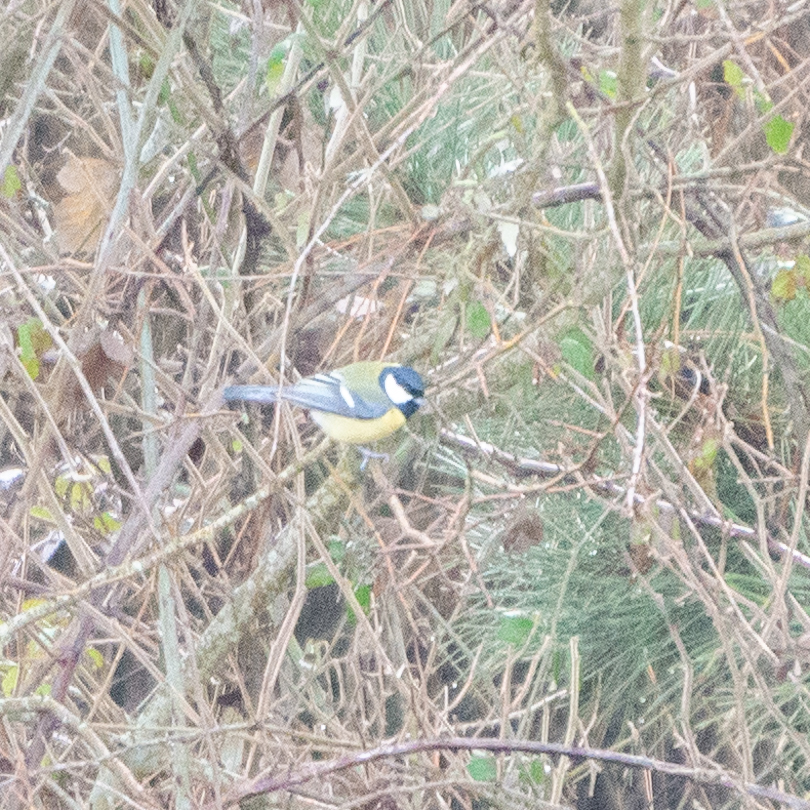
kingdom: Animalia
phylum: Chordata
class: Aves
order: Passeriformes
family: Paridae
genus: Parus
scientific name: Parus major
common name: Great tit
